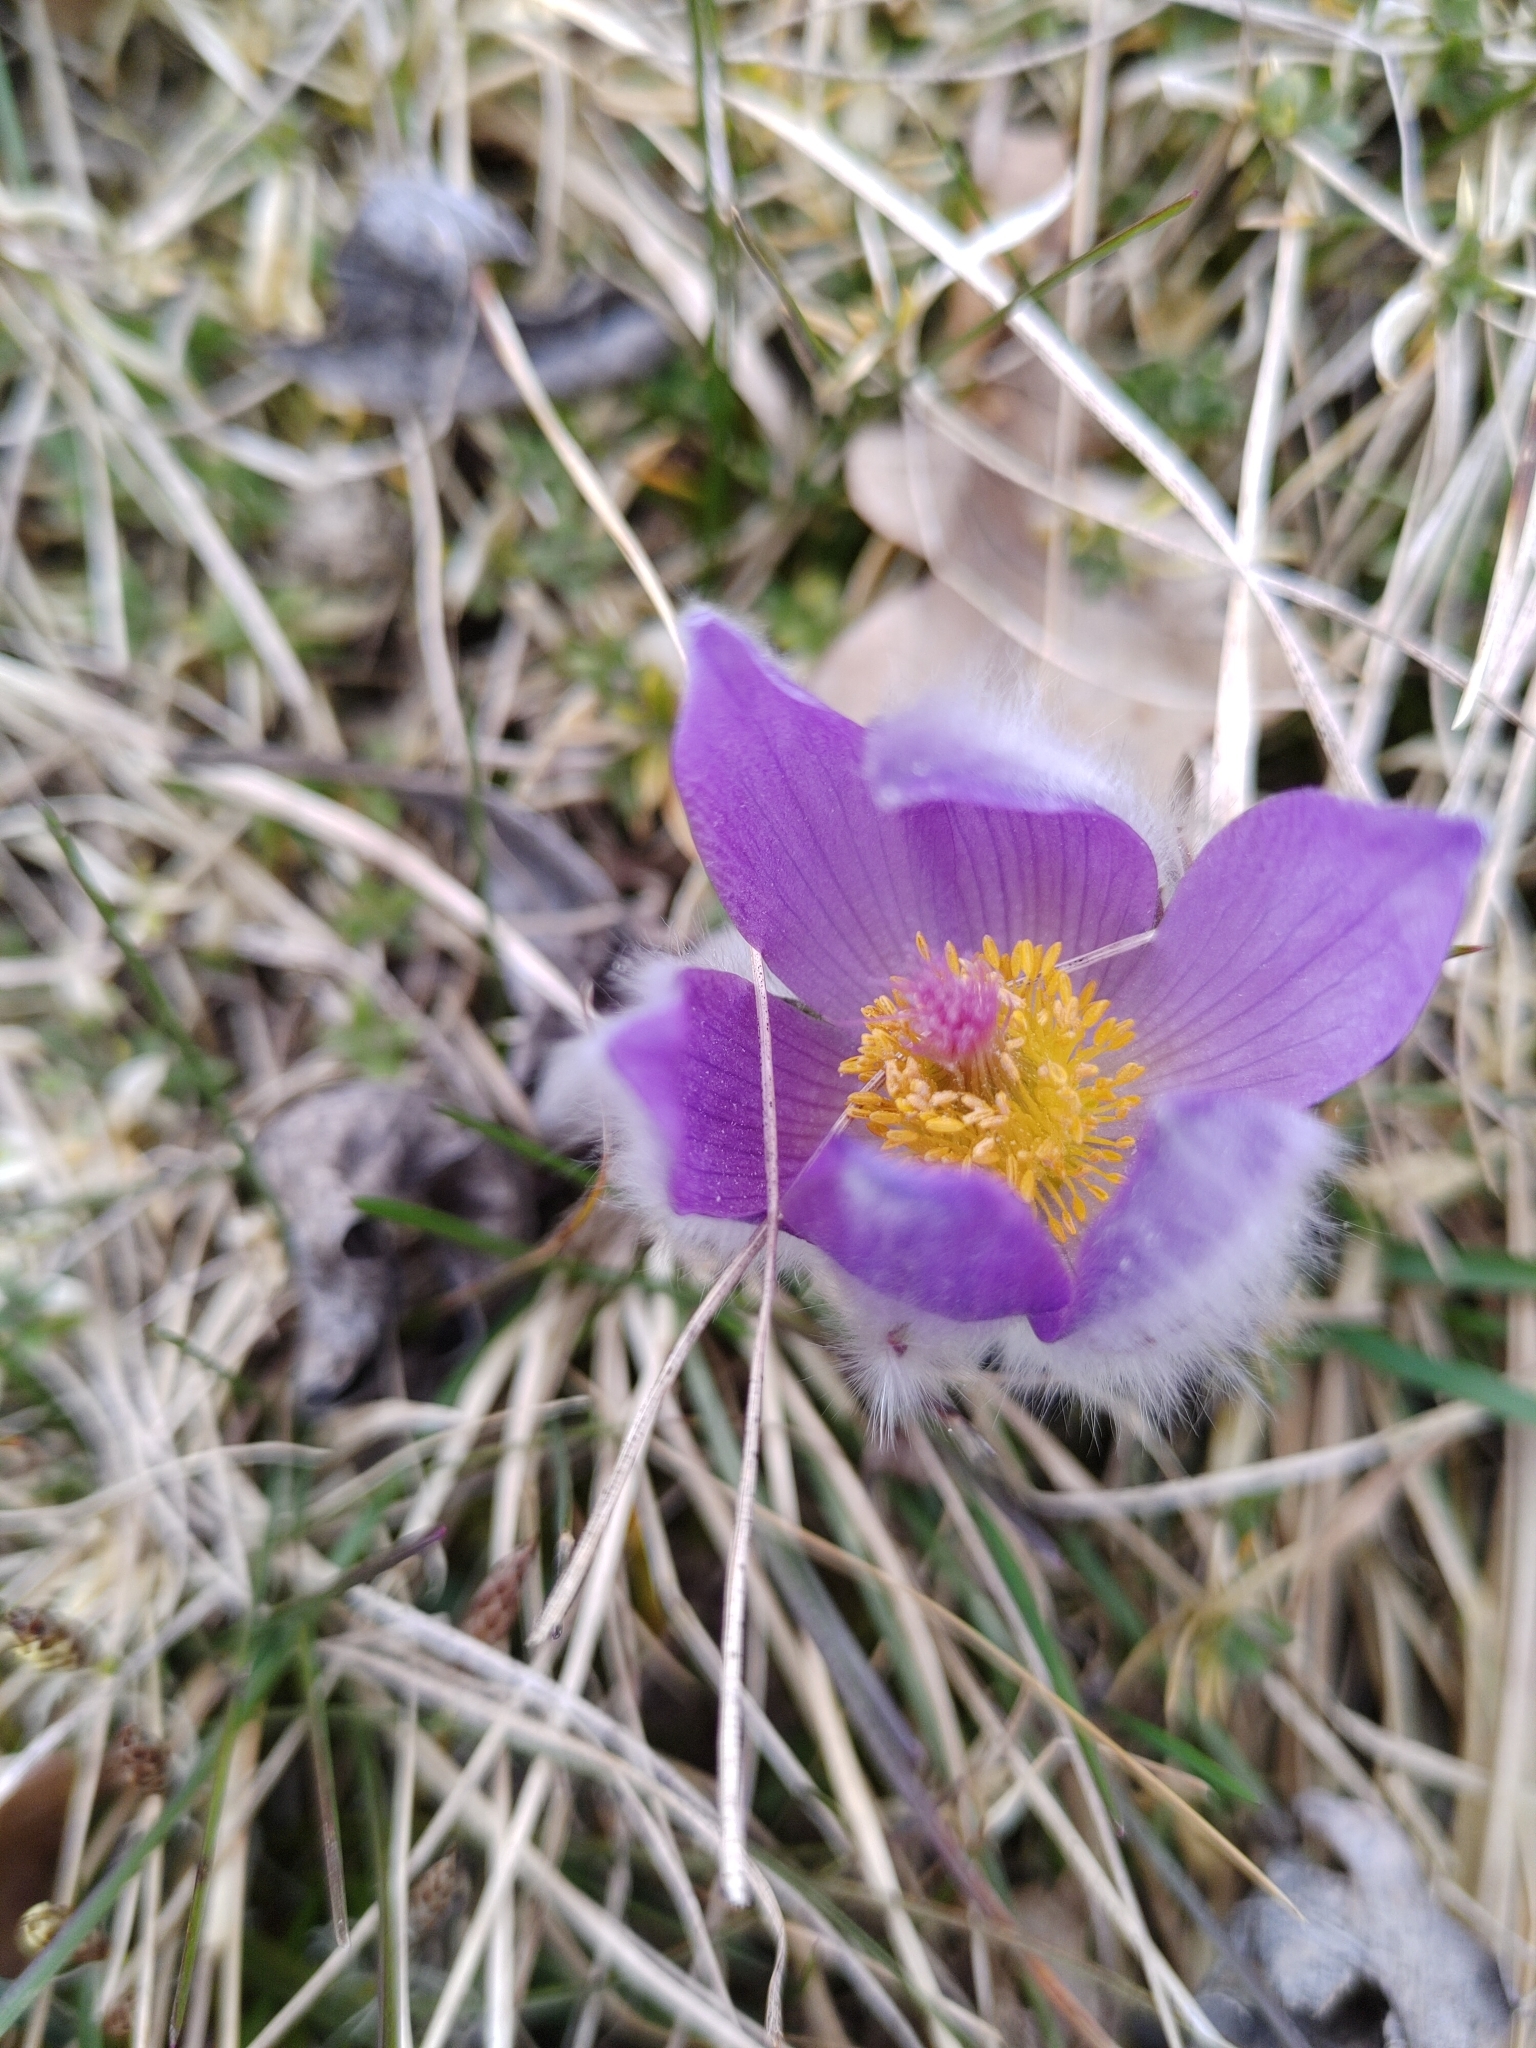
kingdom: Plantae
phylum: Tracheophyta
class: Magnoliopsida
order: Ranunculales
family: Ranunculaceae
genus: Pulsatilla
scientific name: Pulsatilla grandis
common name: Greater pasque flower
